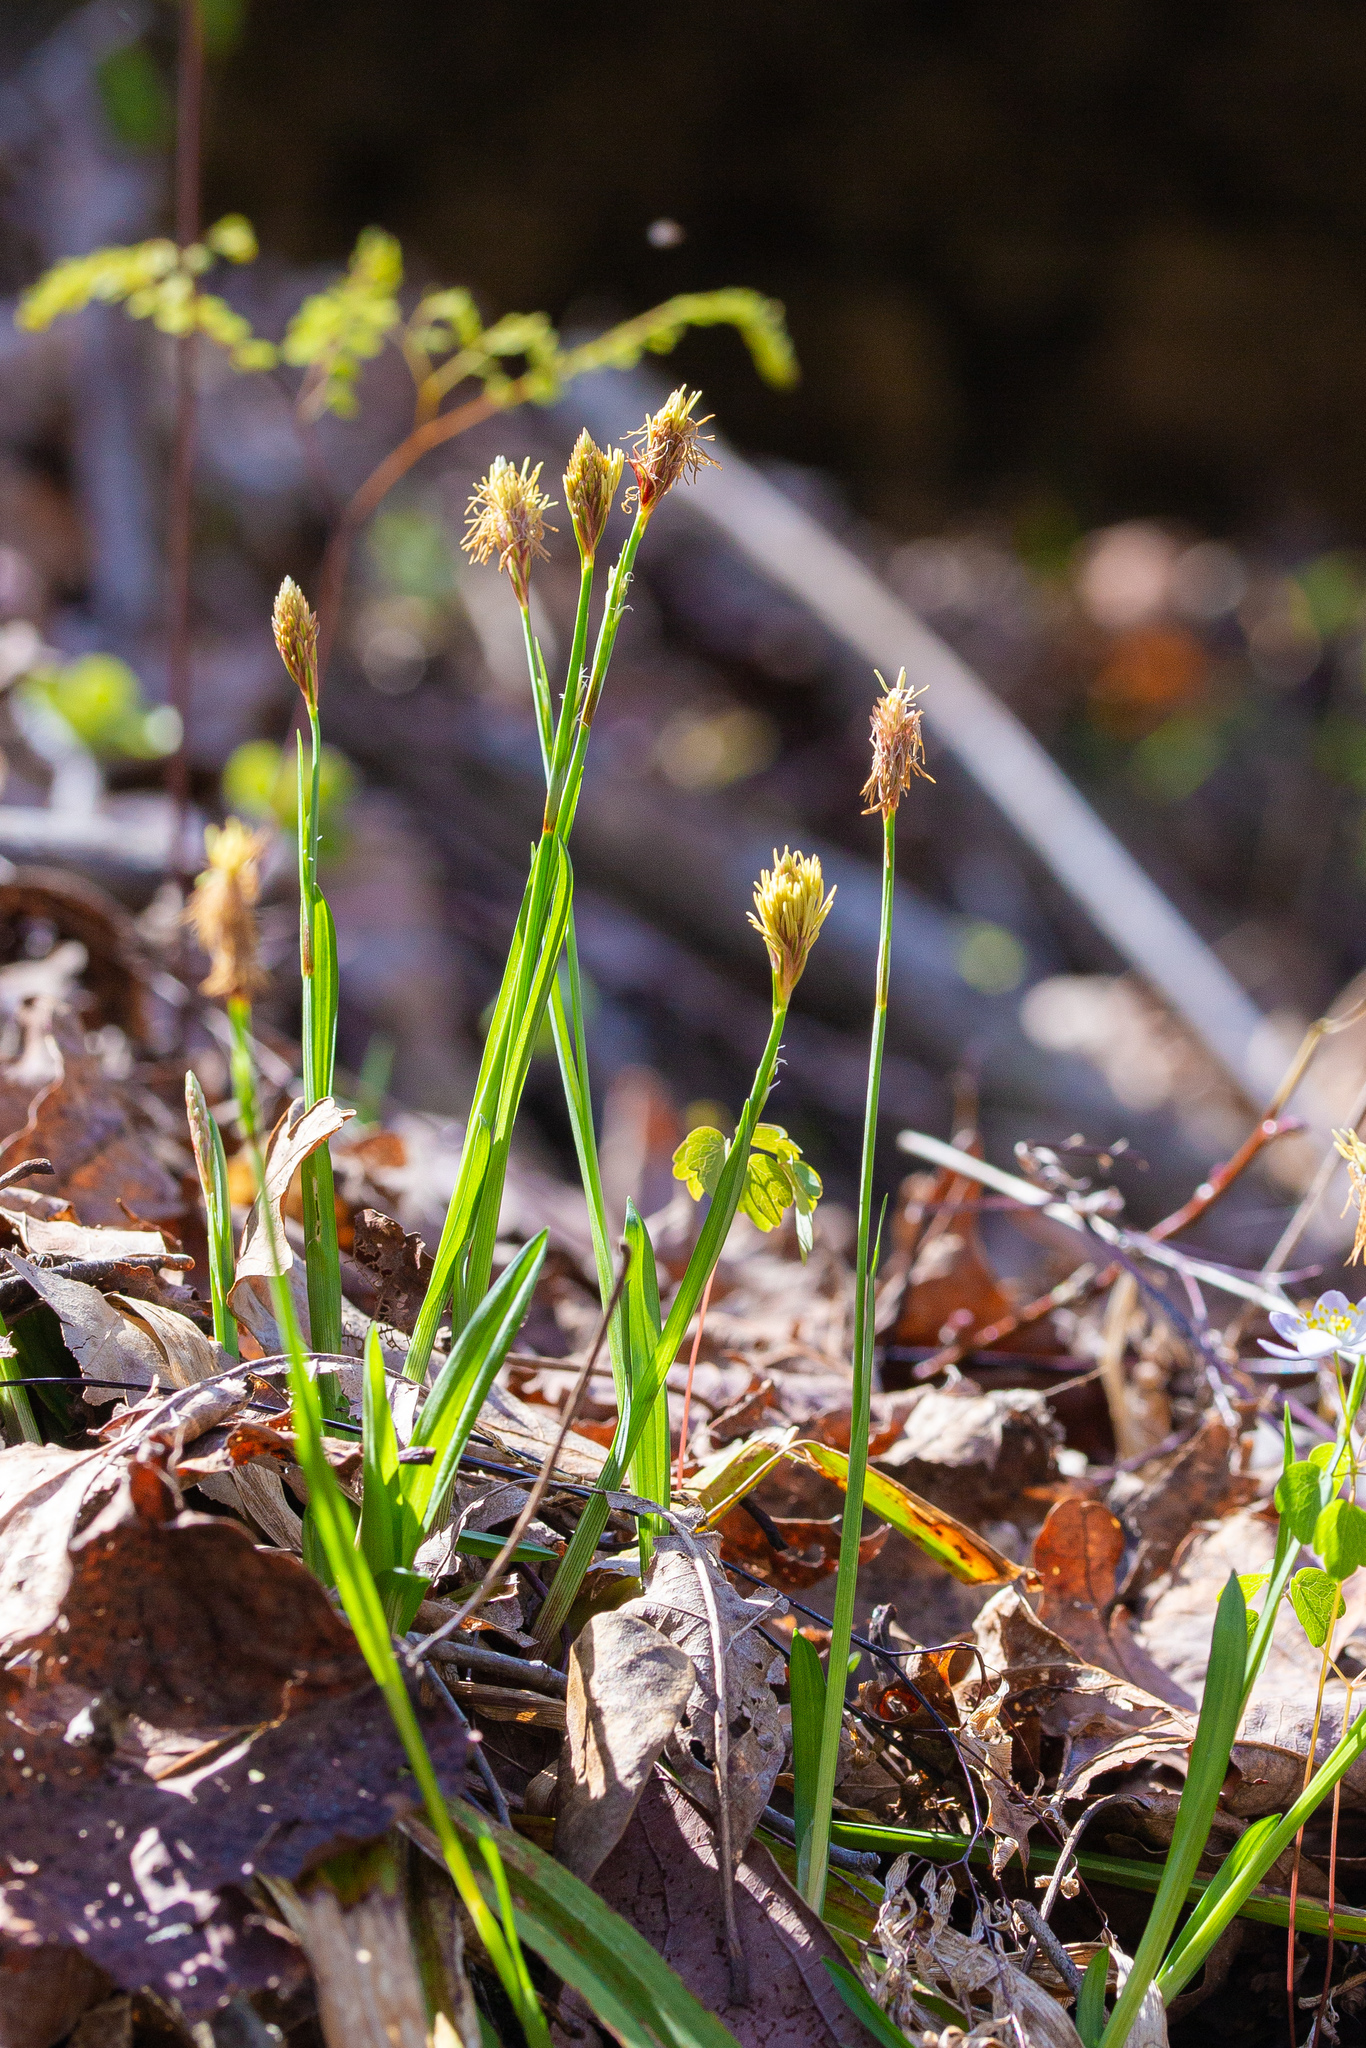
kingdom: Plantae
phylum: Tracheophyta
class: Liliopsida
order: Poales
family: Cyperaceae
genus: Carex
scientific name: Carex careyana
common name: Carey's sedge
